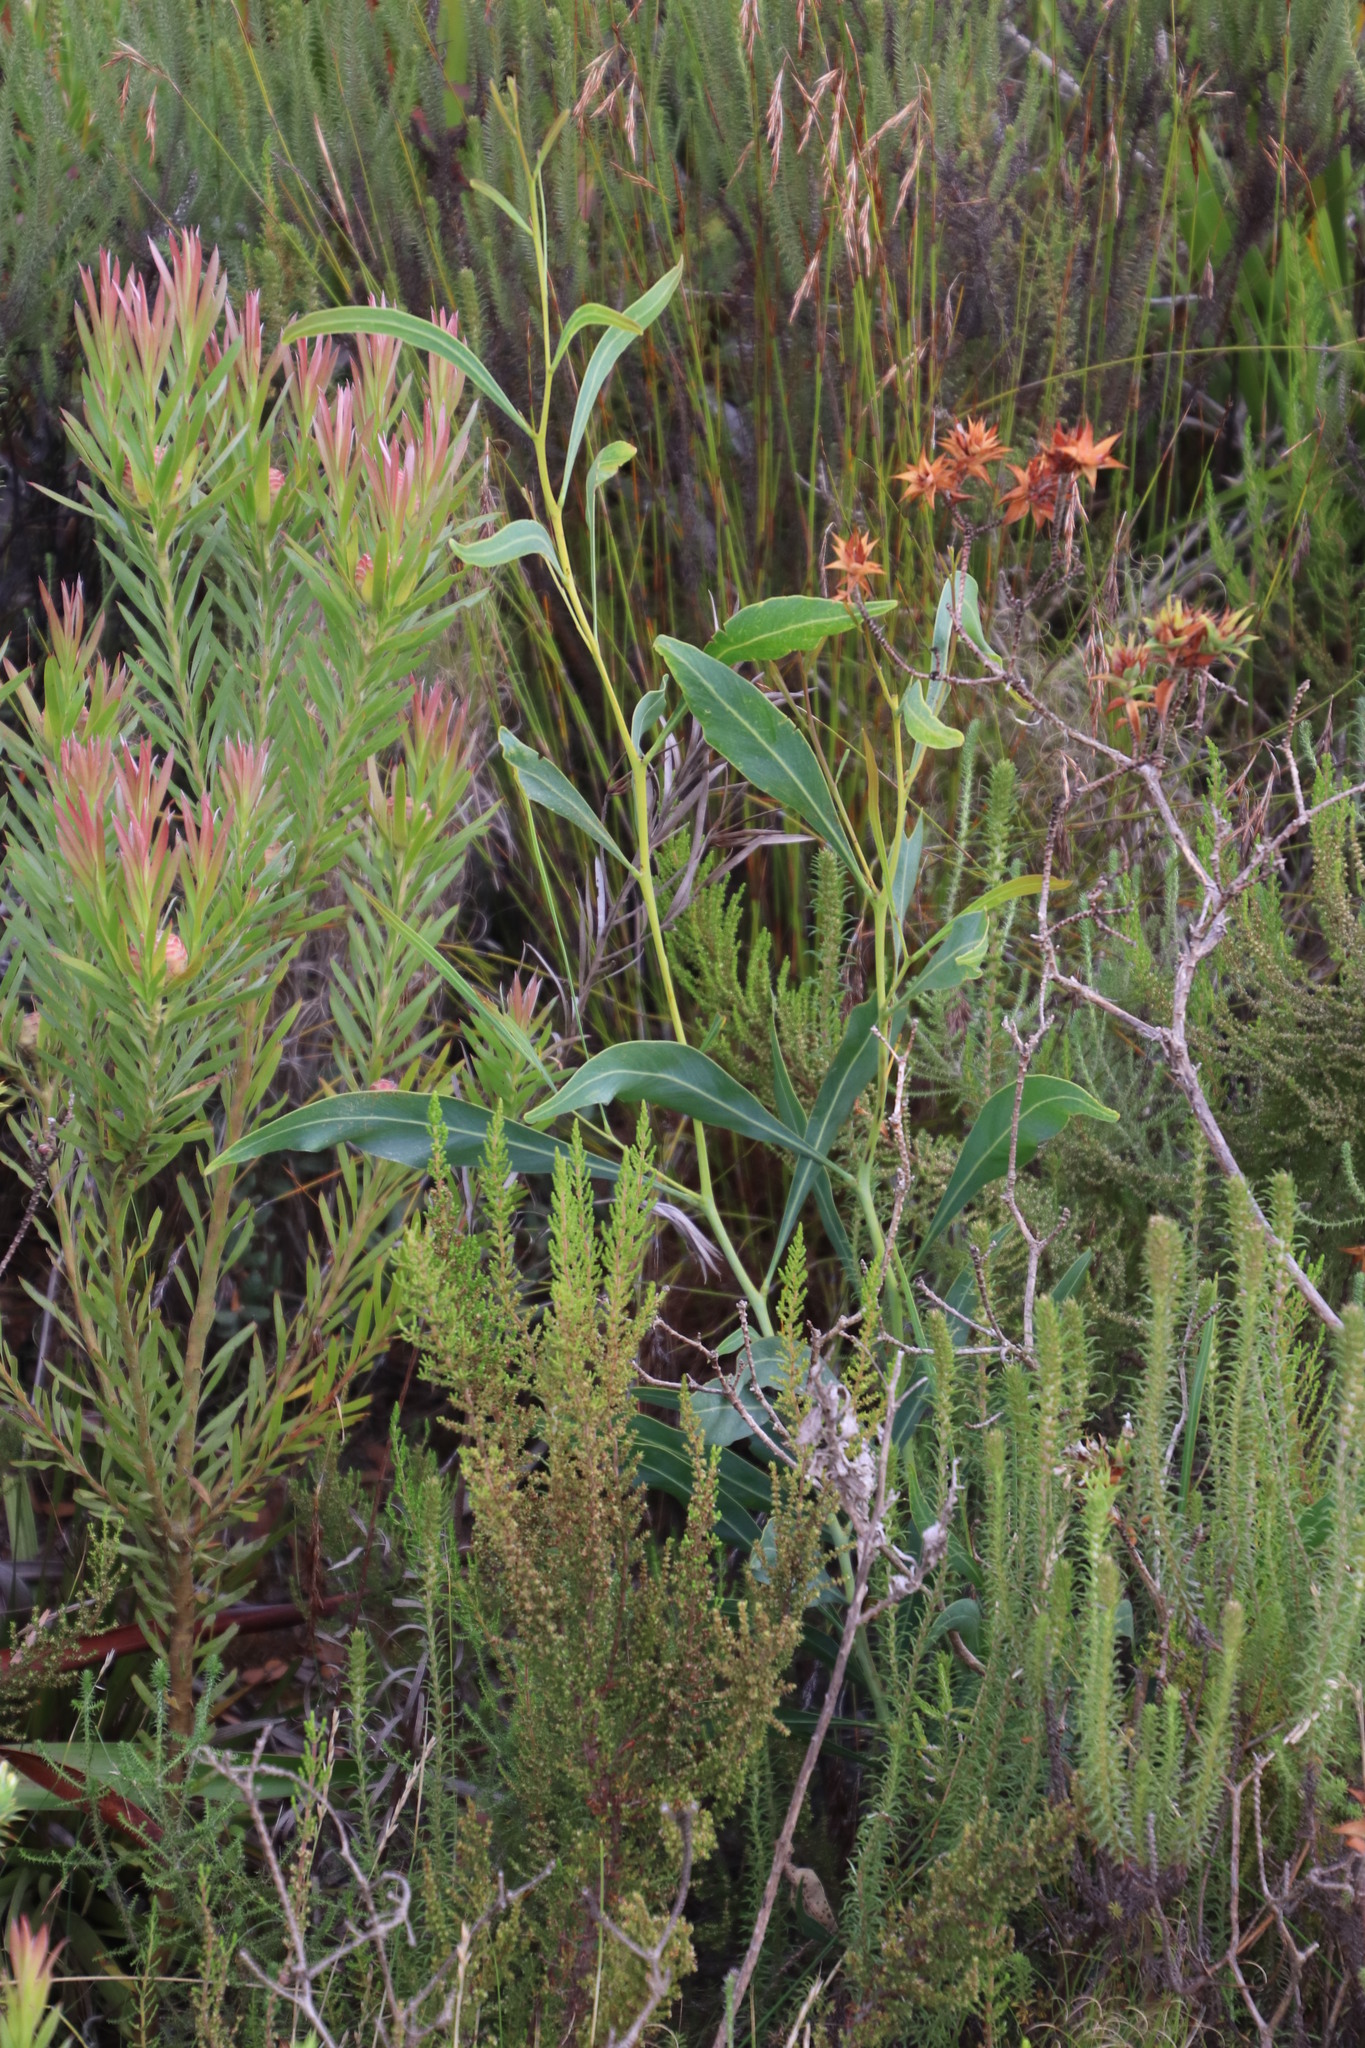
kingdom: Plantae
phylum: Tracheophyta
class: Magnoliopsida
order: Fabales
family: Fabaceae
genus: Acacia
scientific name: Acacia saligna
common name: Orange wattle
